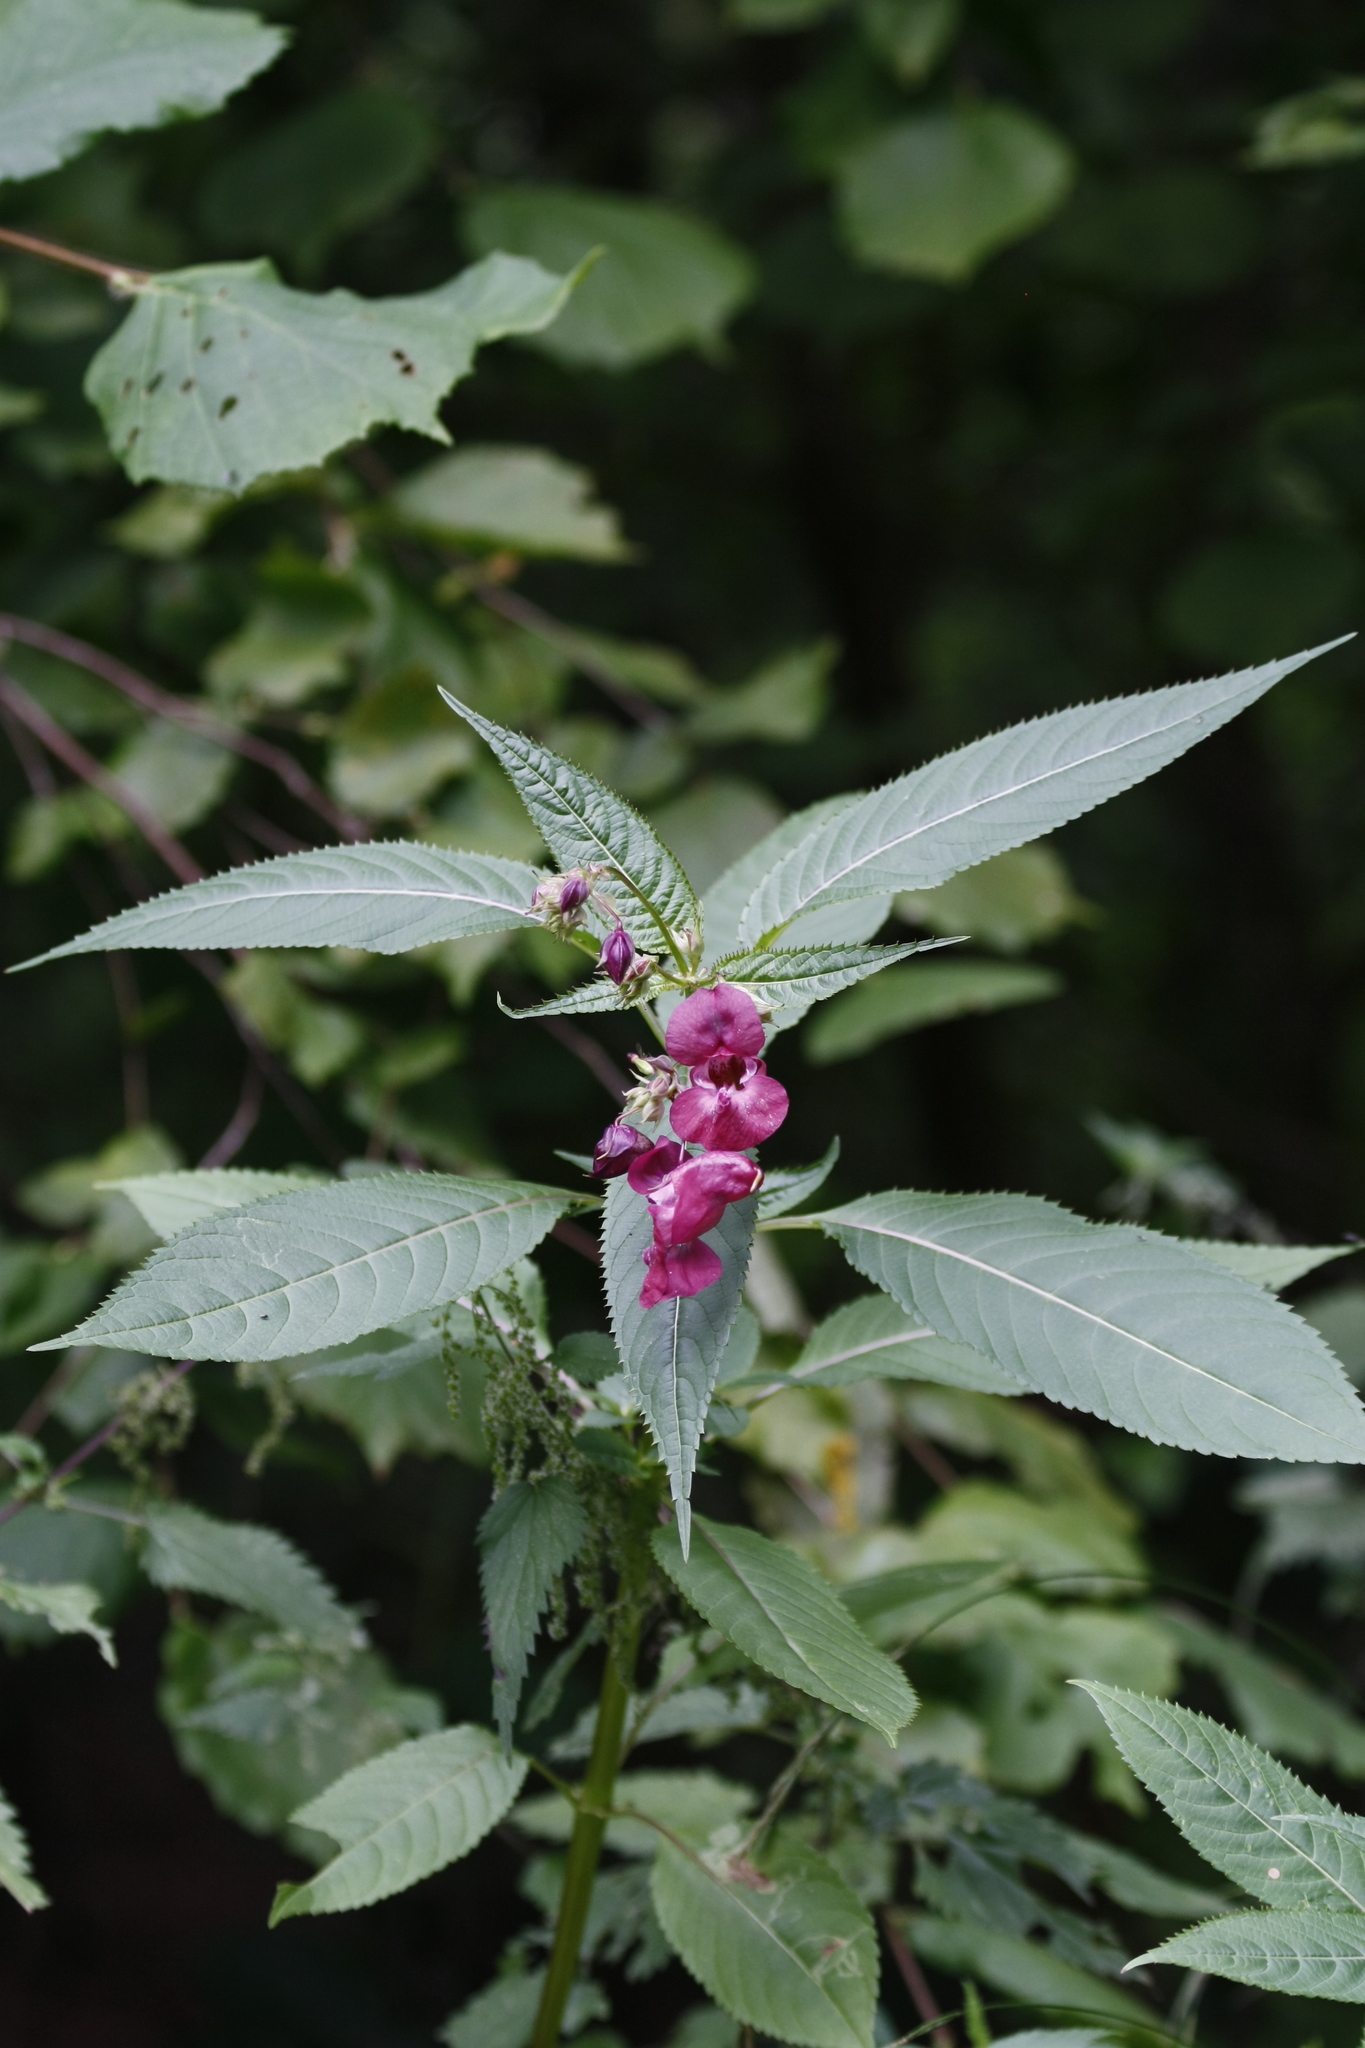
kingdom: Plantae
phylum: Tracheophyta
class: Magnoliopsida
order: Ericales
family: Balsaminaceae
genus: Impatiens
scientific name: Impatiens glandulifera
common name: Himalayan balsam
